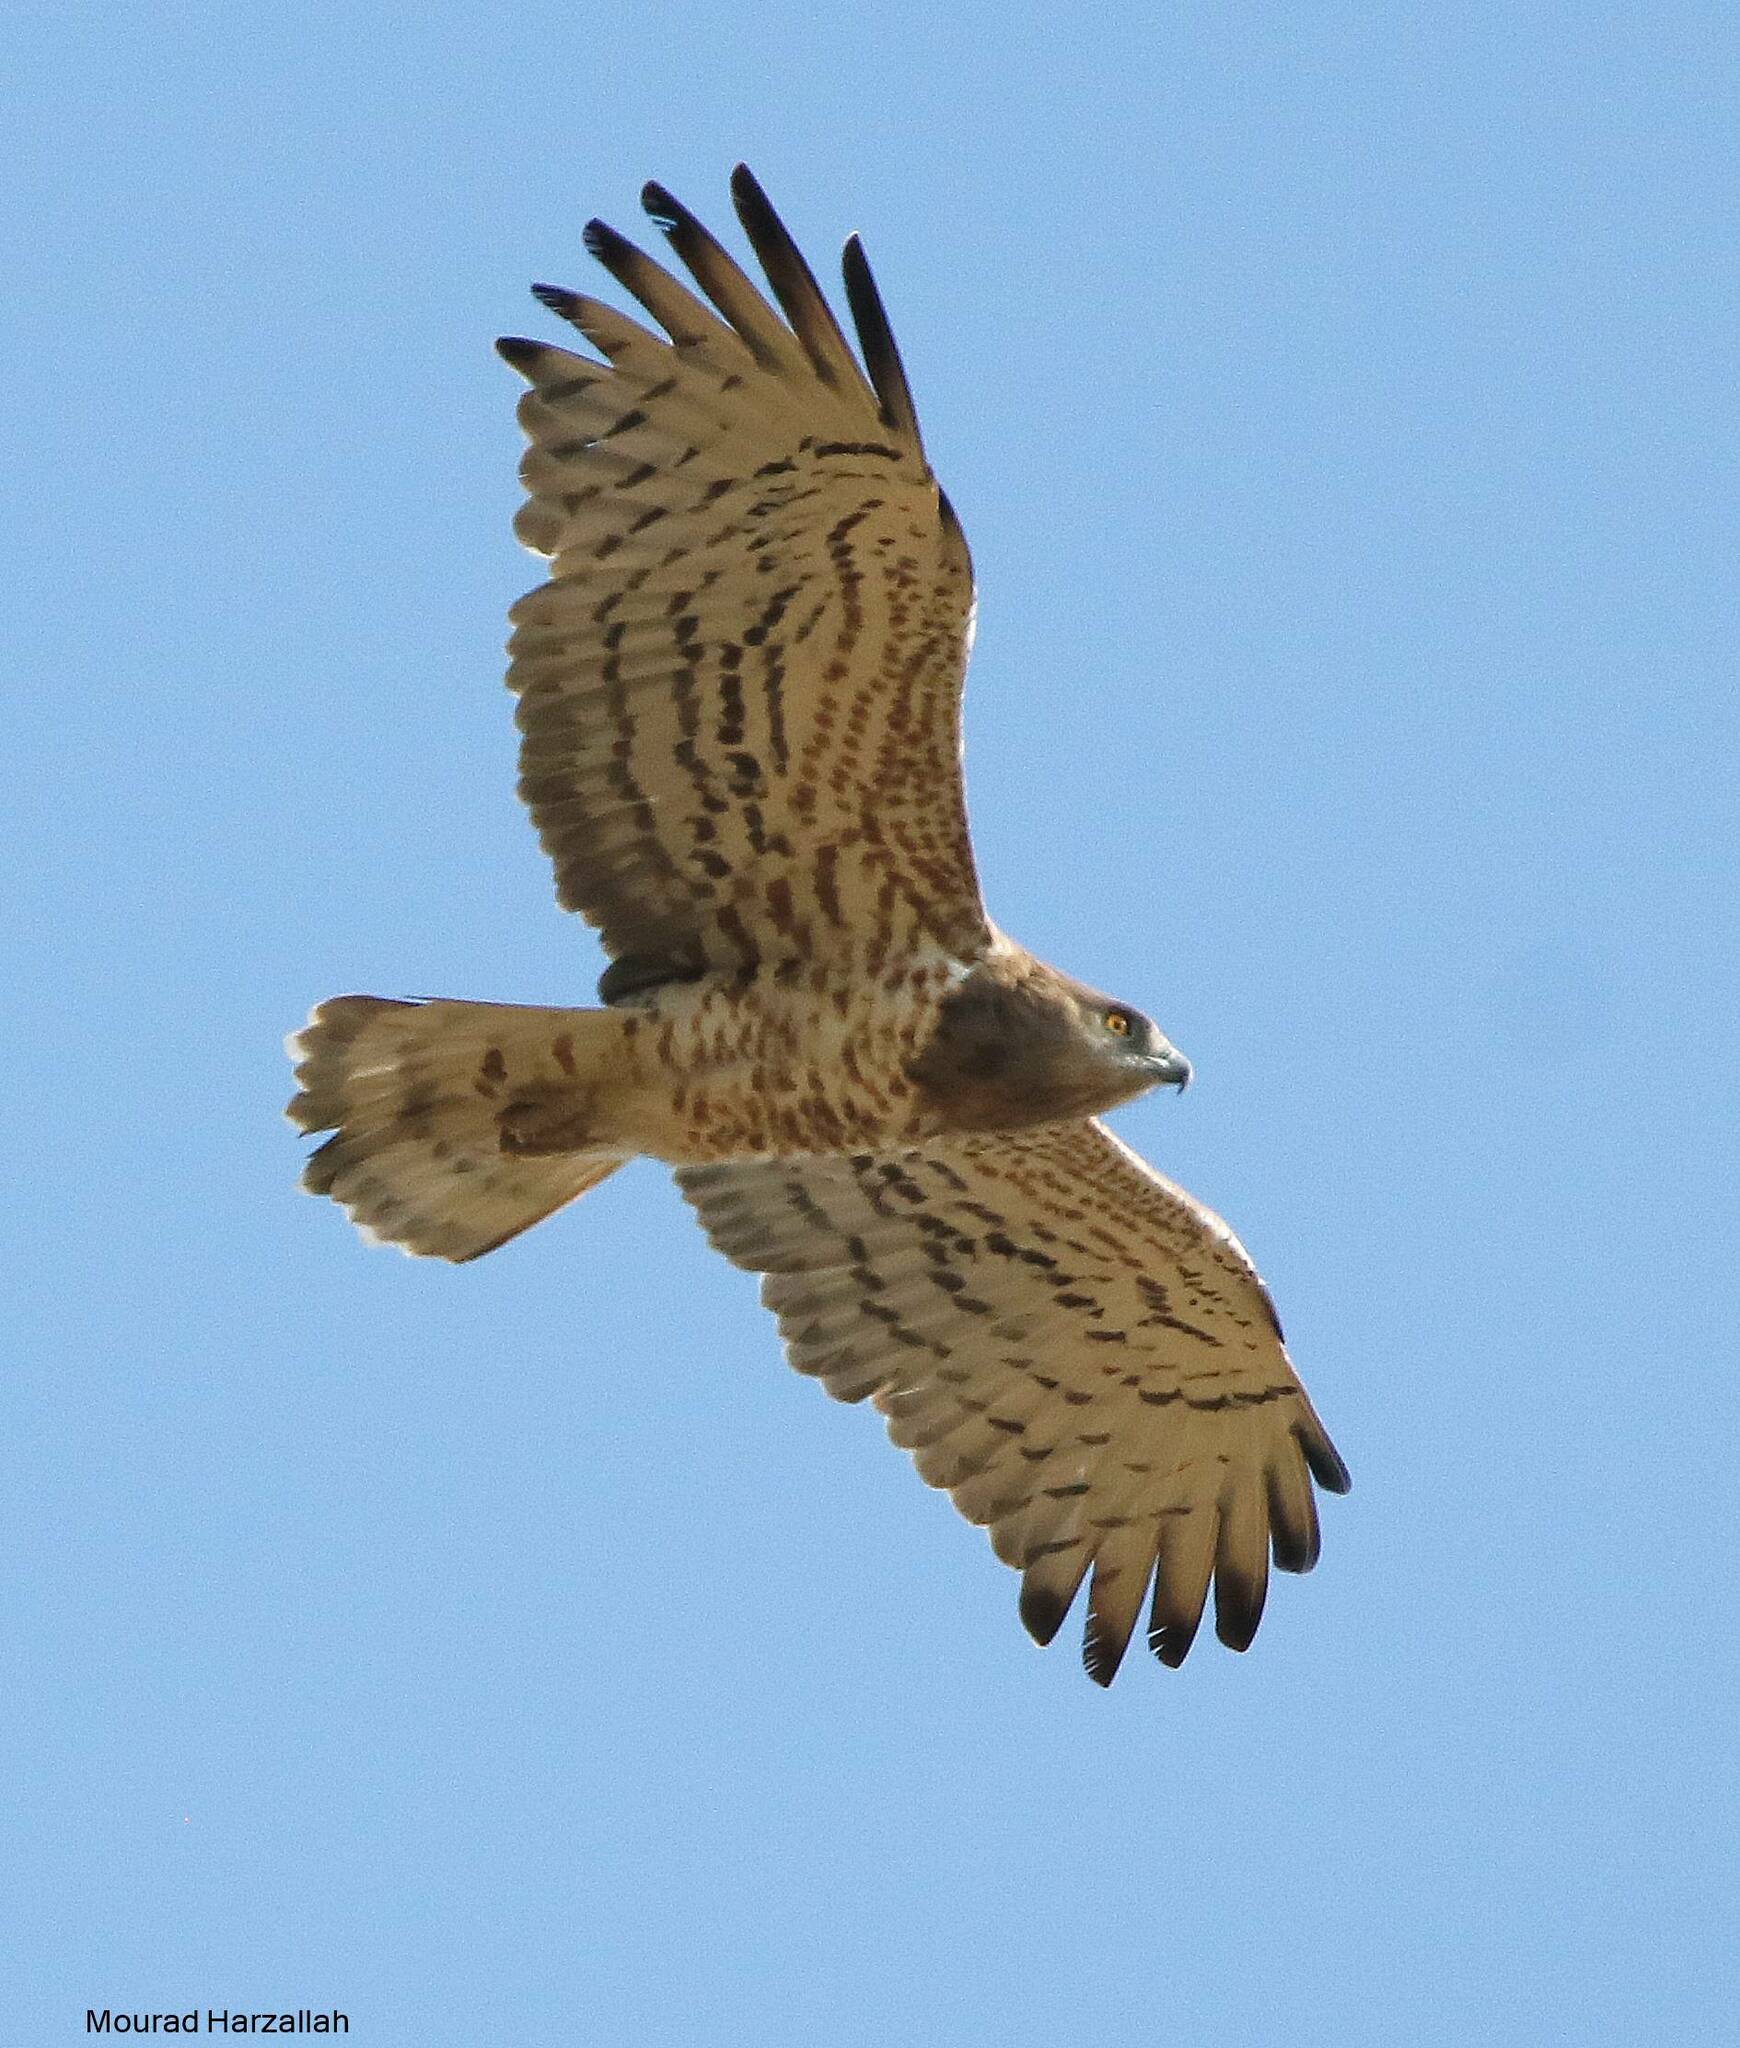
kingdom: Animalia
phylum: Chordata
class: Aves
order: Accipitriformes
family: Accipitridae
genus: Circaetus
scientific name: Circaetus gallicus
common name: Short-toed snake eagle
